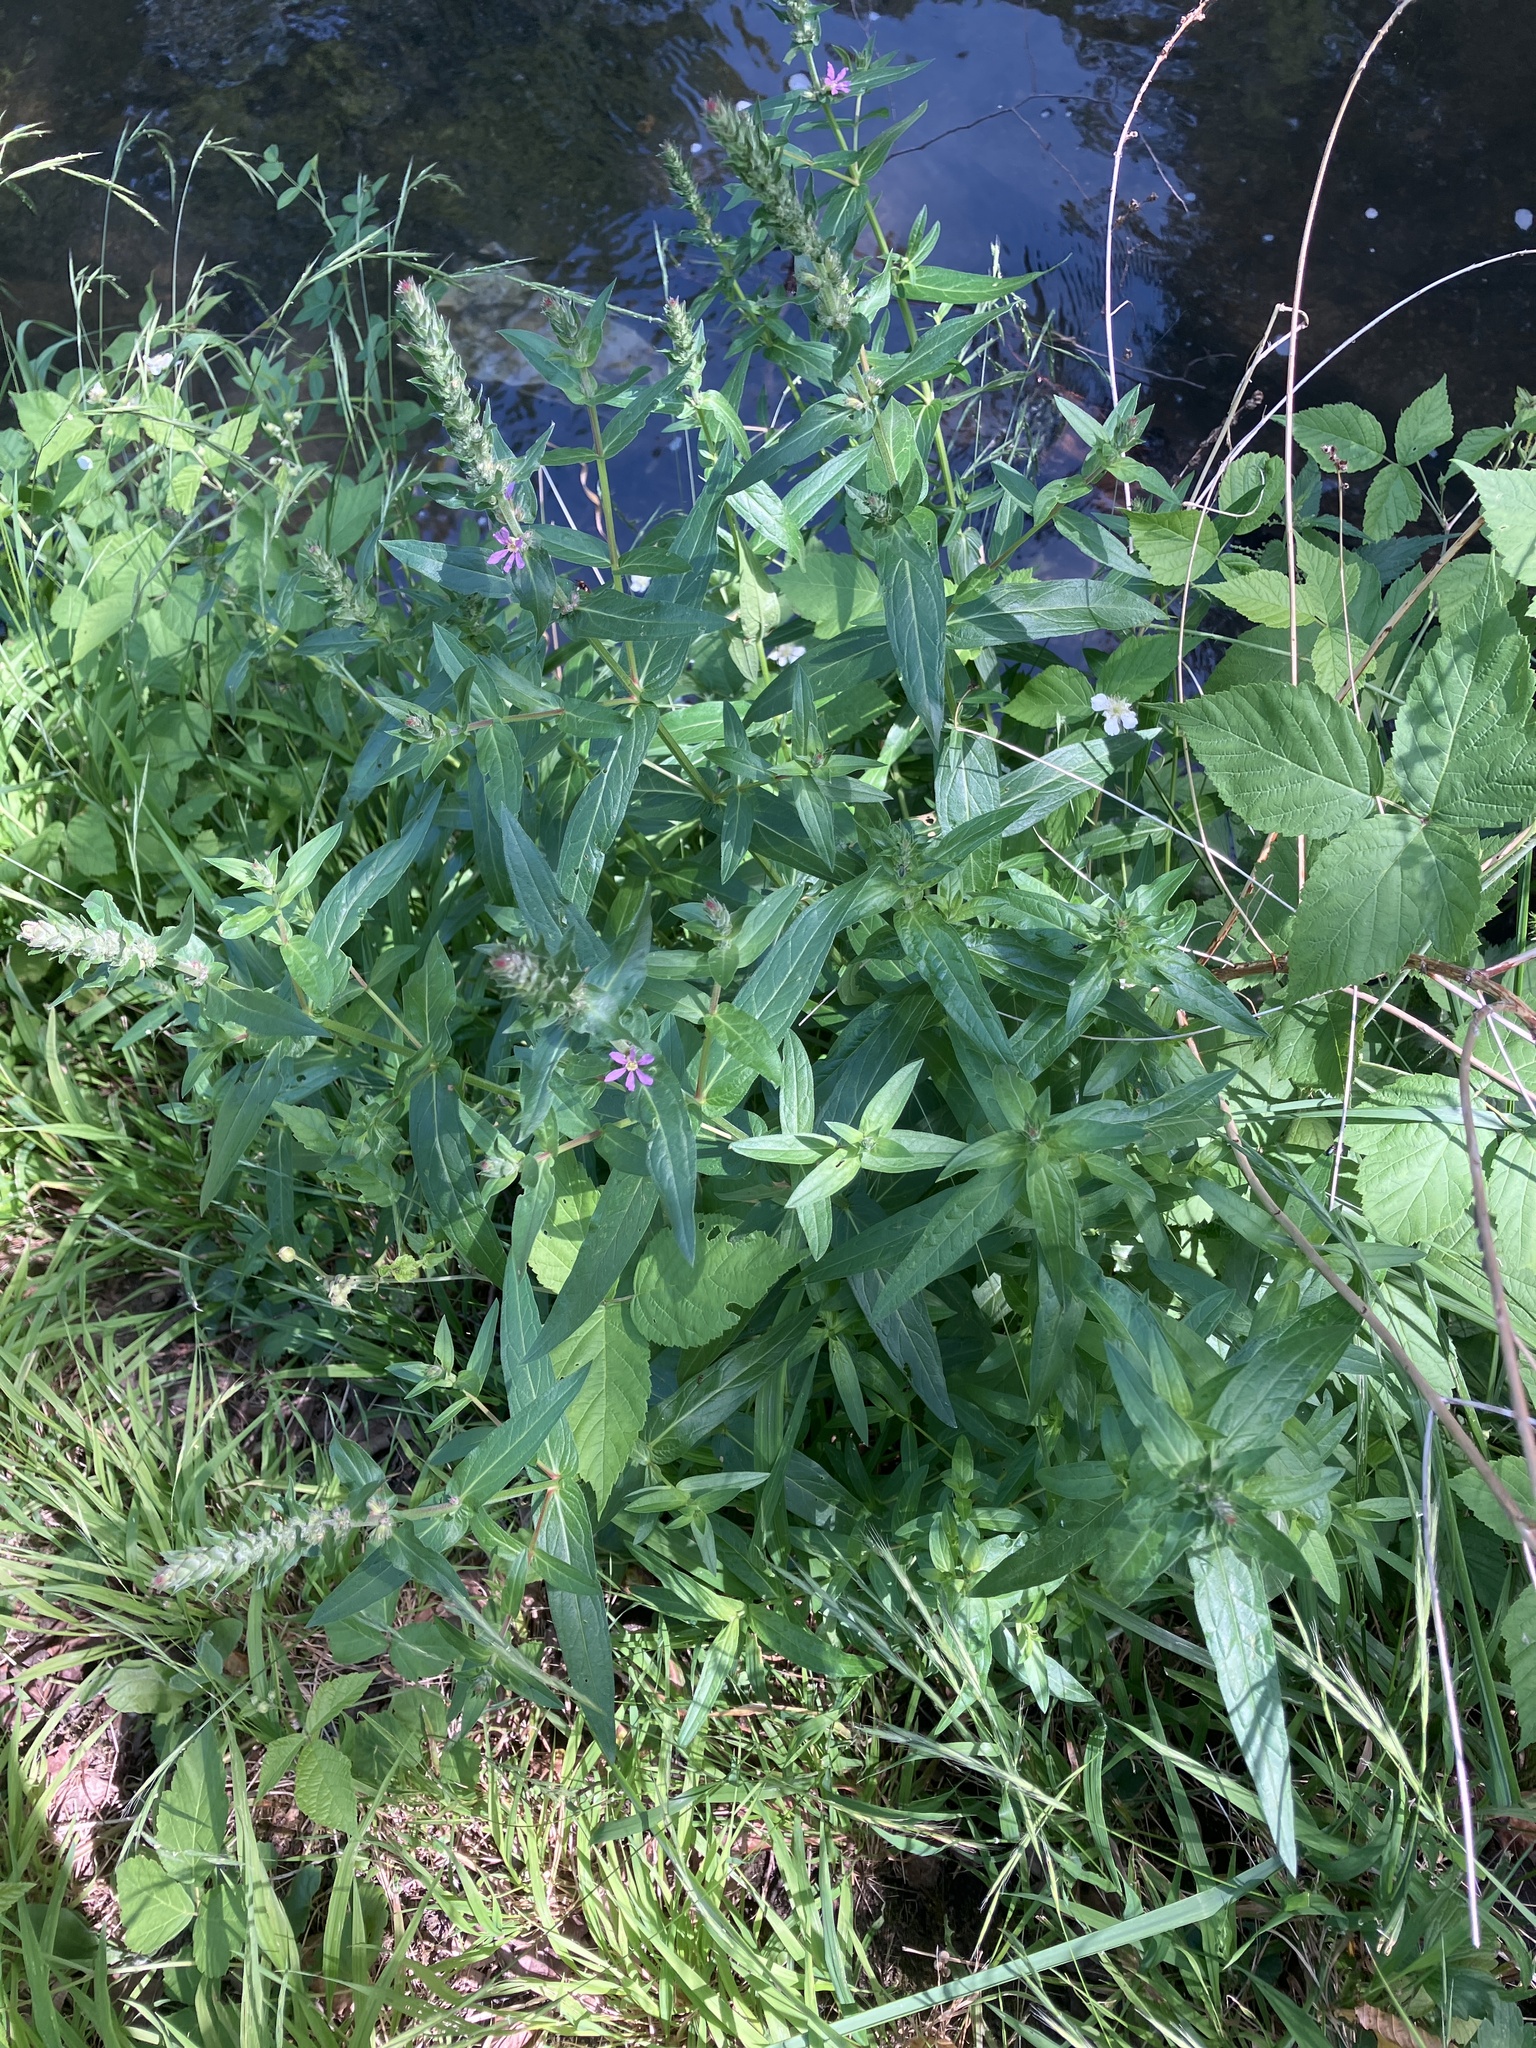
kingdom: Plantae
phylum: Tracheophyta
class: Magnoliopsida
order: Myrtales
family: Lythraceae
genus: Lythrum
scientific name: Lythrum salicaria
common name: Purple loosestrife
